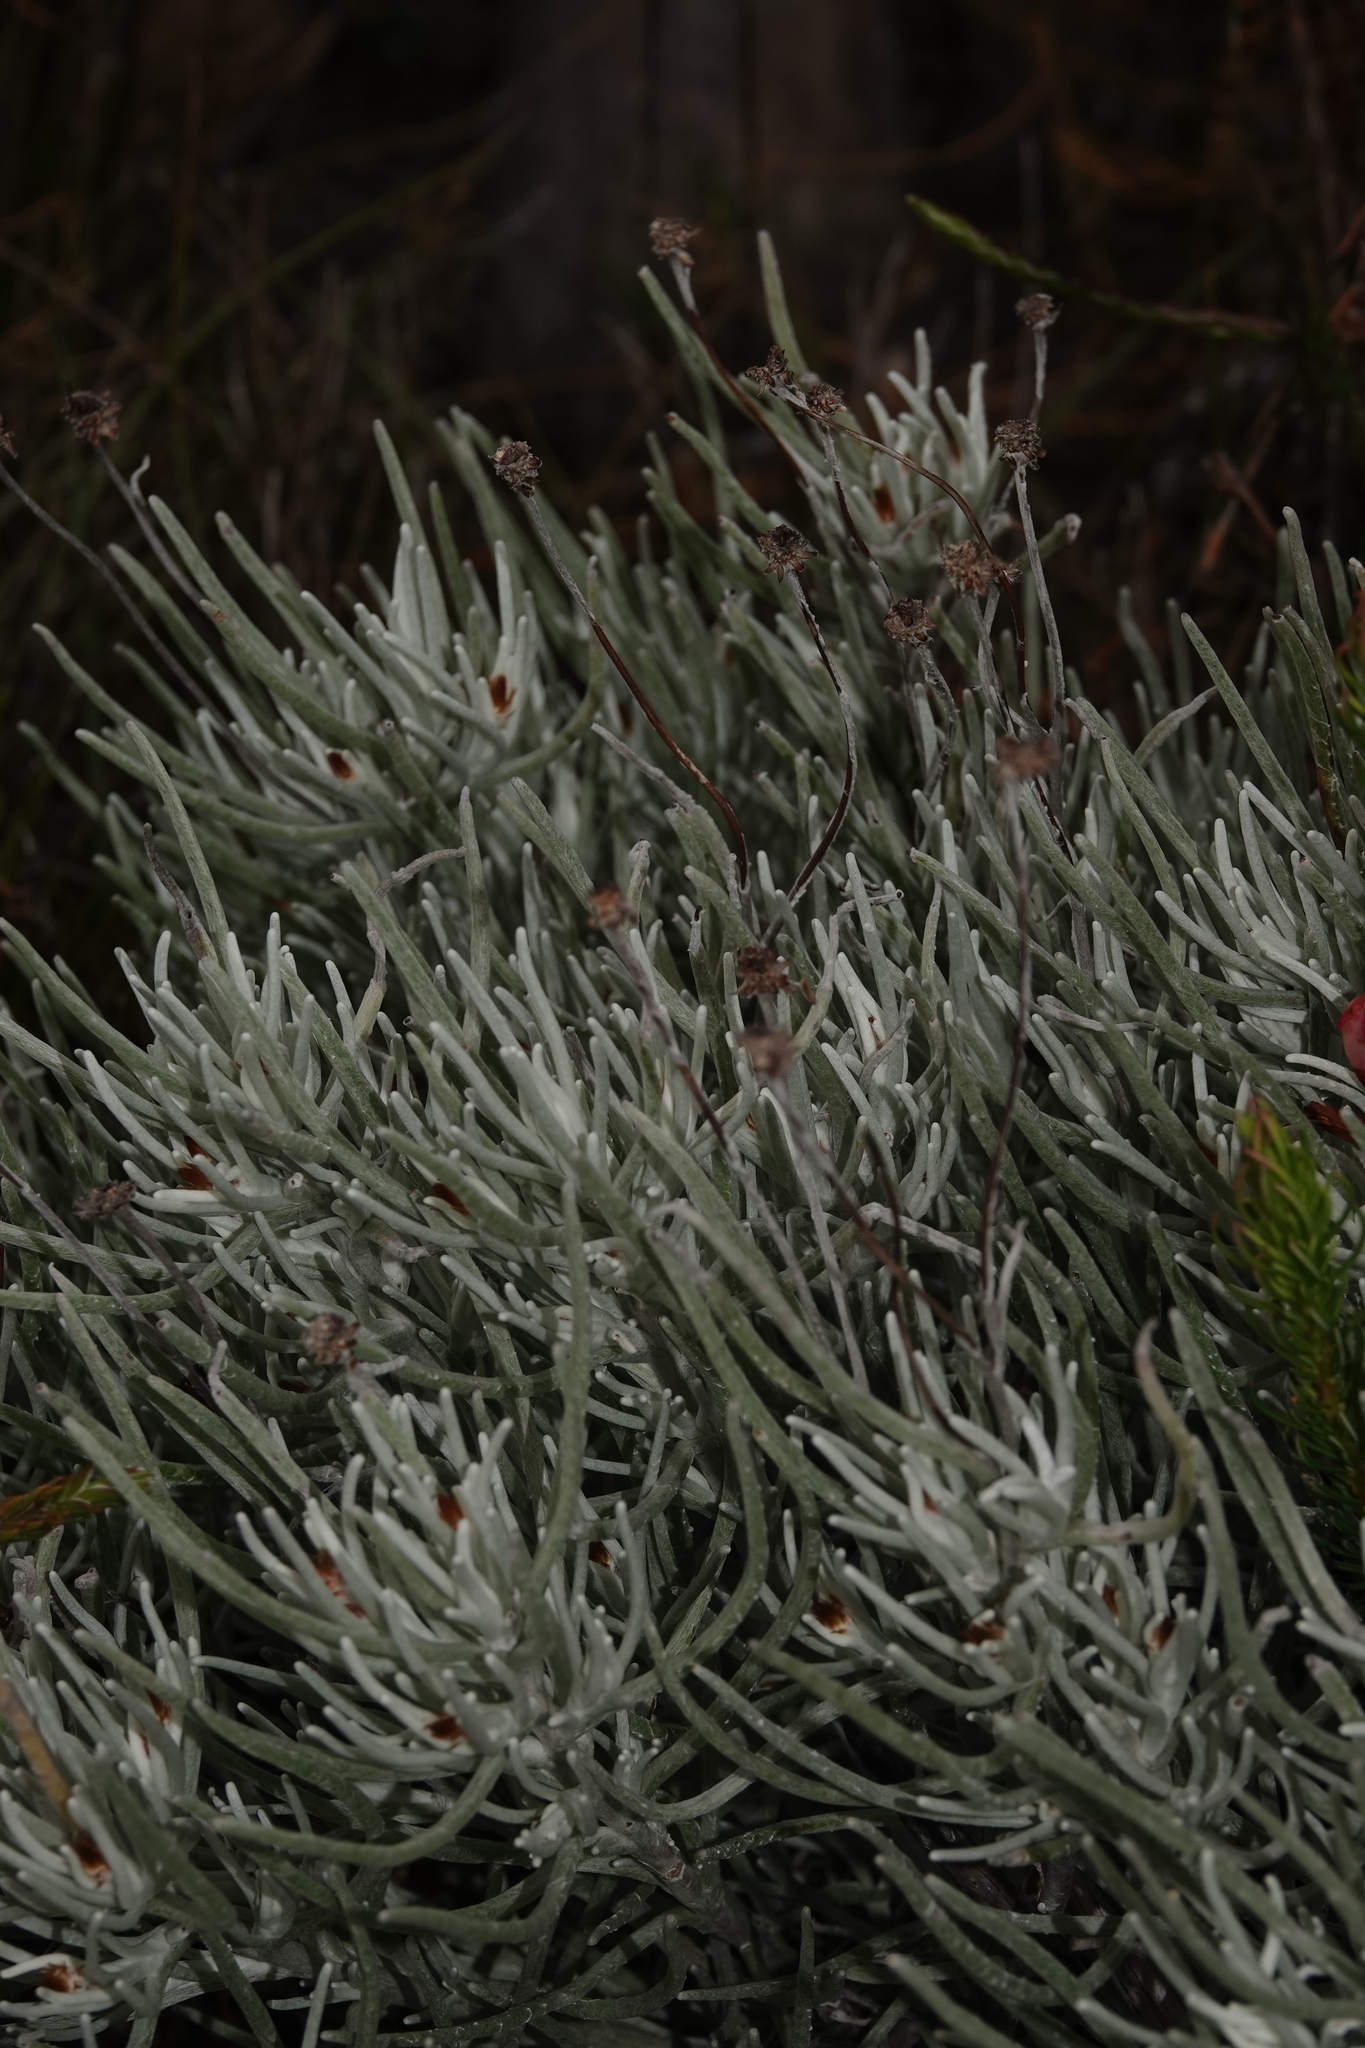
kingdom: Plantae
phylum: Tracheophyta
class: Magnoliopsida
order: Asterales
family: Asteraceae
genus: Syncarpha
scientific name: Syncarpha gnaphaloides
